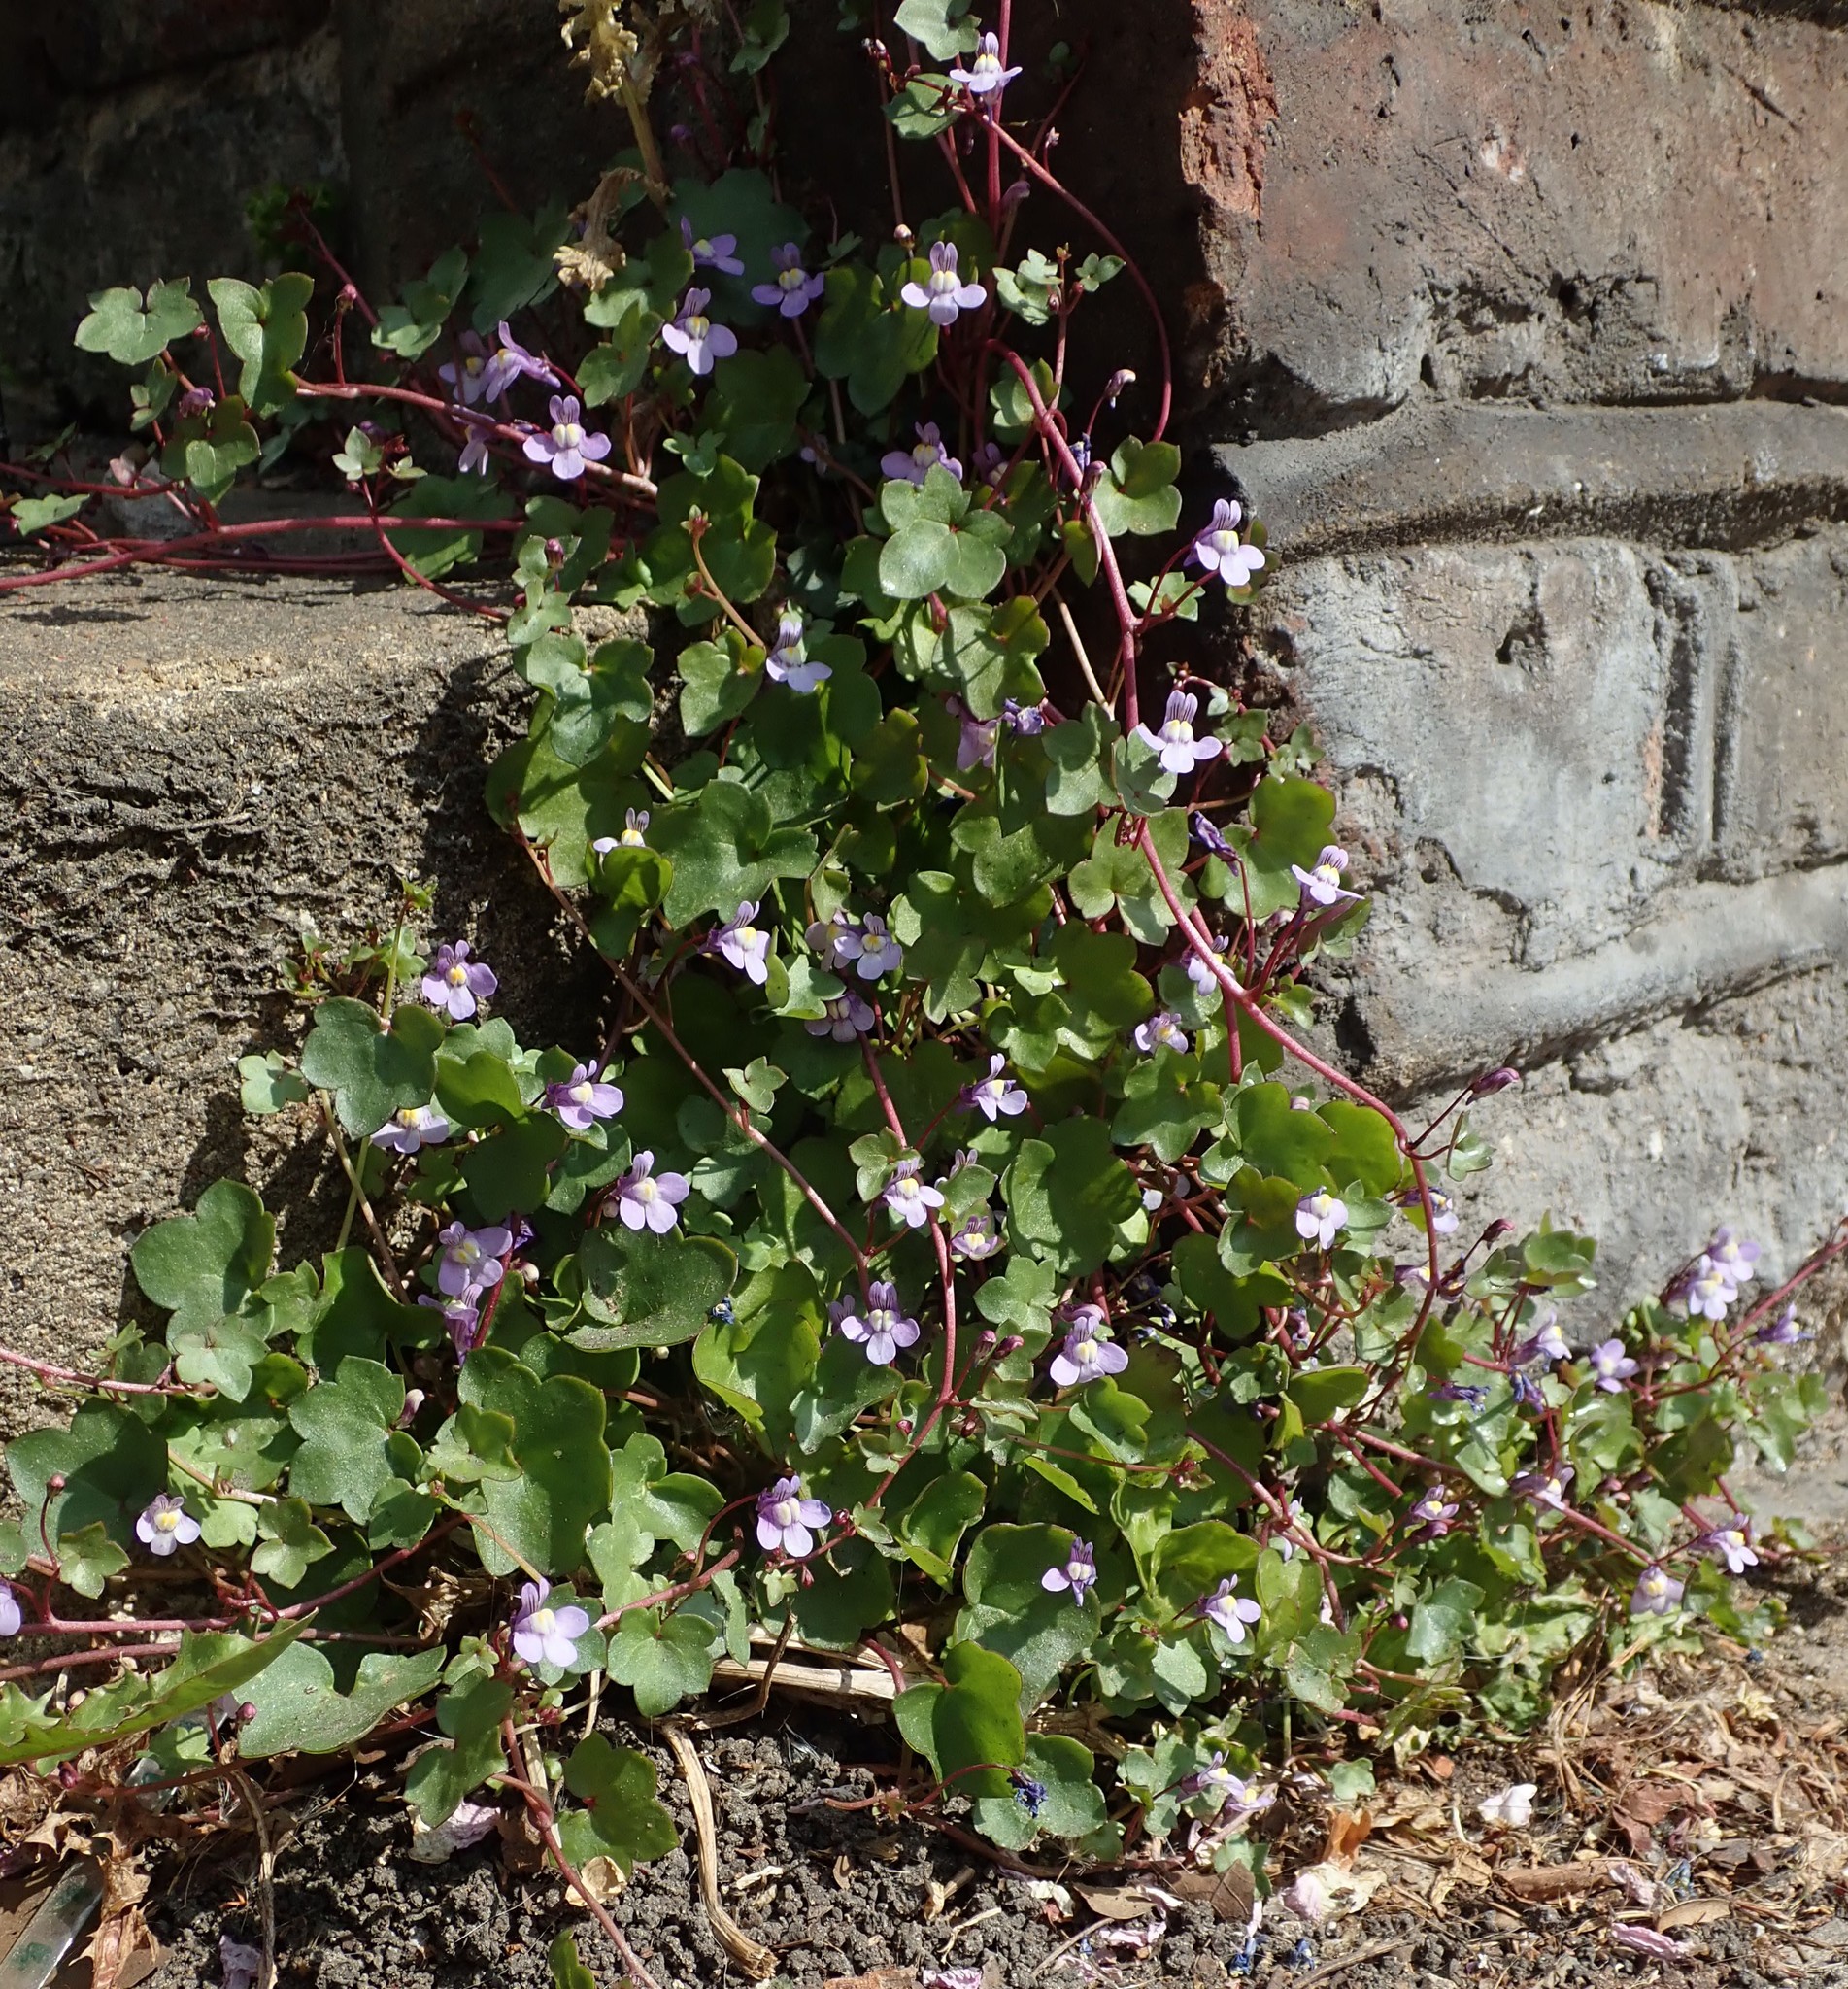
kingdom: Plantae
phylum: Tracheophyta
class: Magnoliopsida
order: Lamiales
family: Plantaginaceae
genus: Cymbalaria
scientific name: Cymbalaria muralis
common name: Ivy-leaved toadflax
